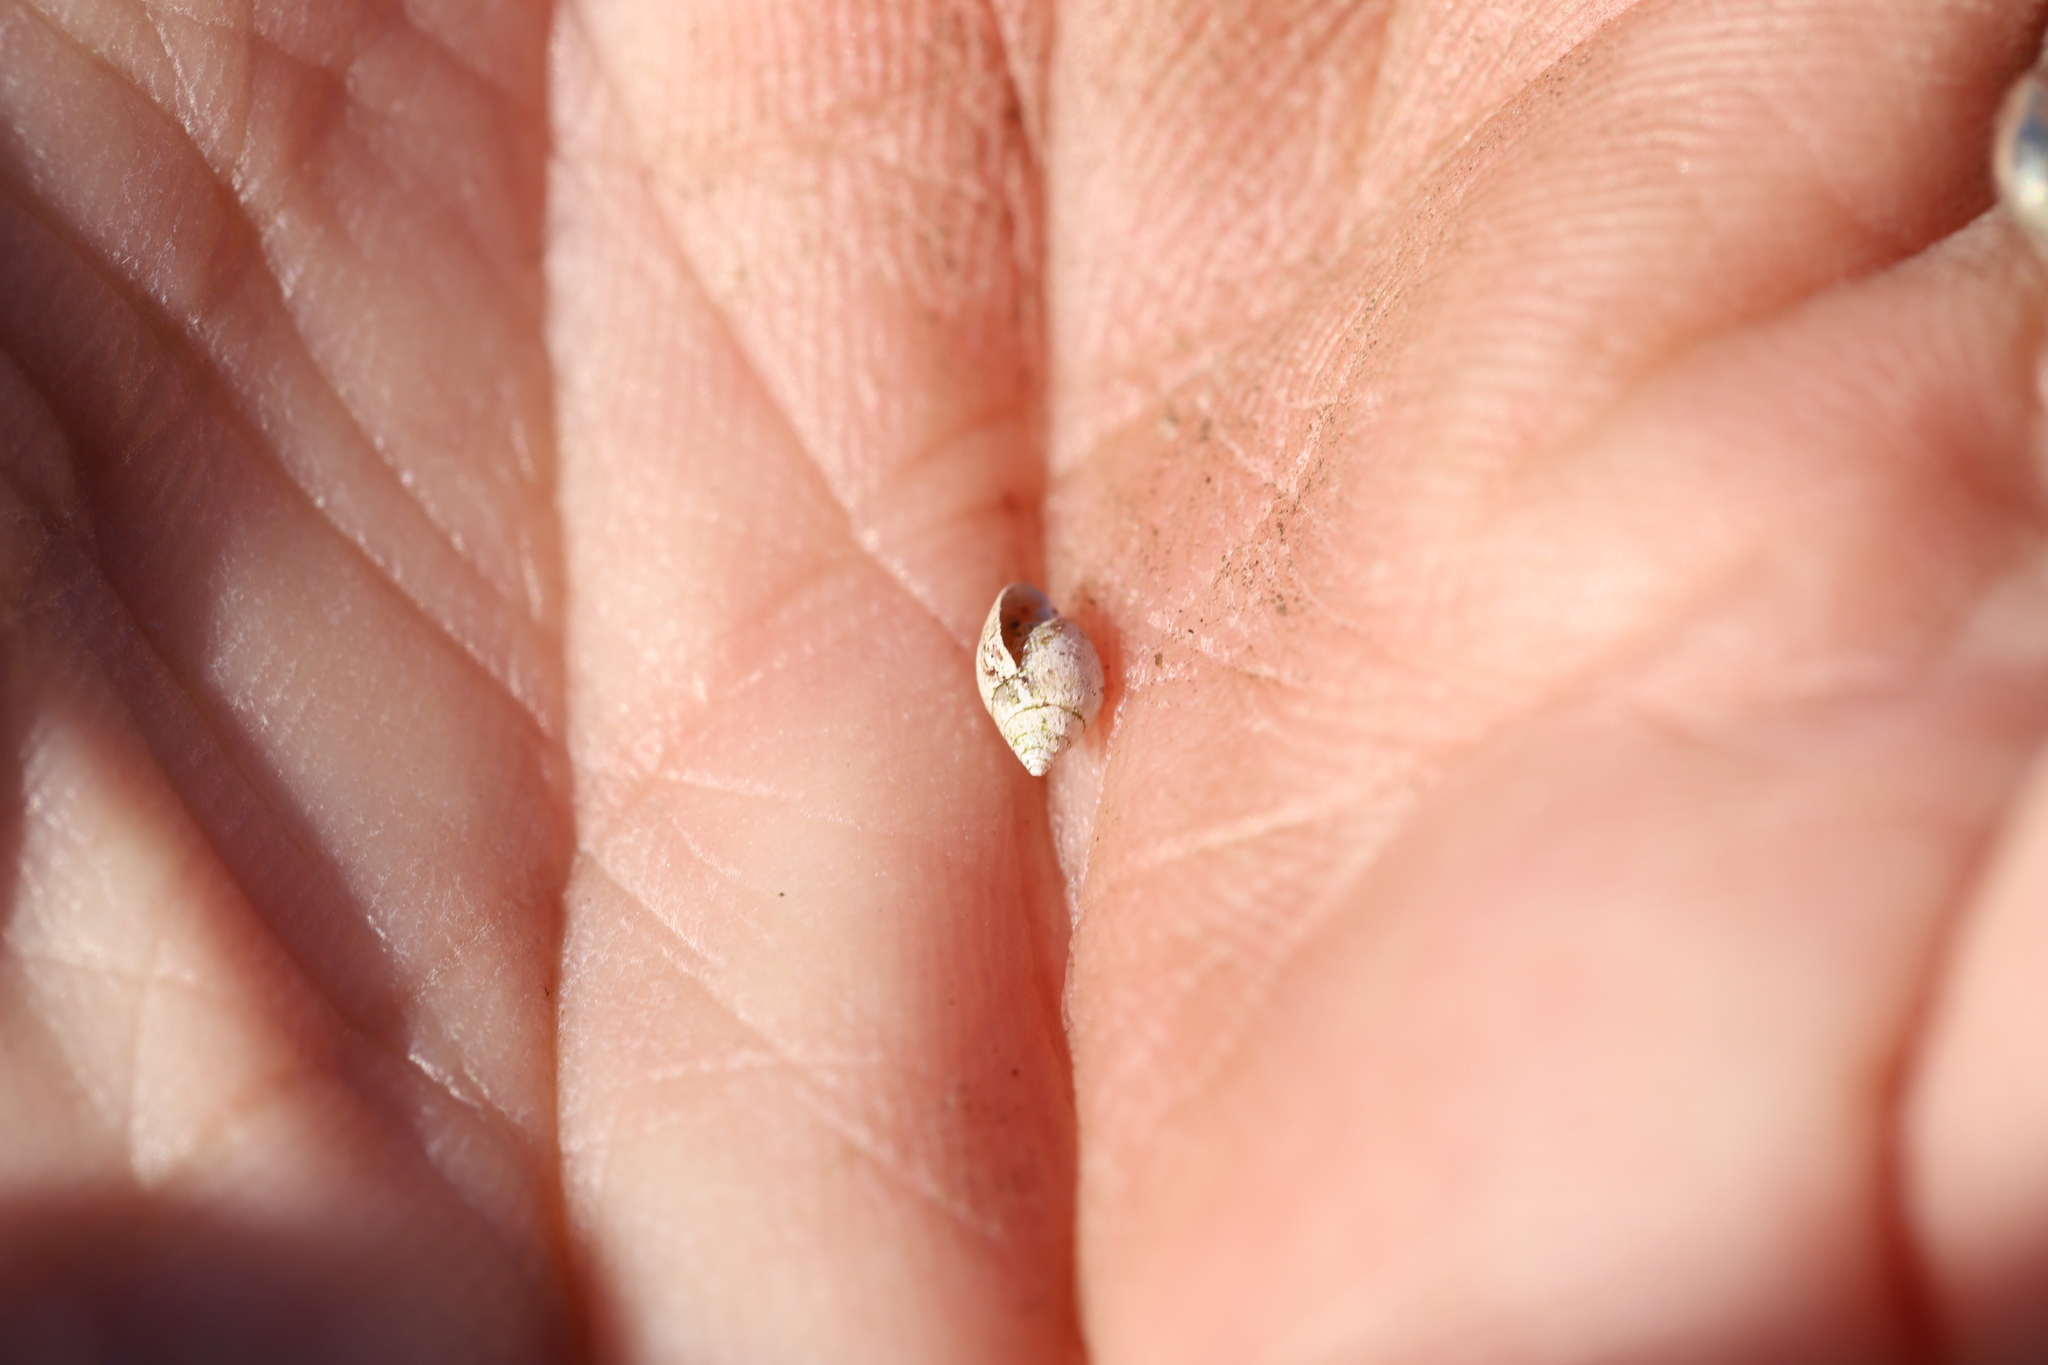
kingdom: Animalia
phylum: Mollusca
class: Gastropoda
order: Ellobiida
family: Ellobiidae
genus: Myosotella
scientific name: Myosotella myosotis
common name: Mouse-eared snail
